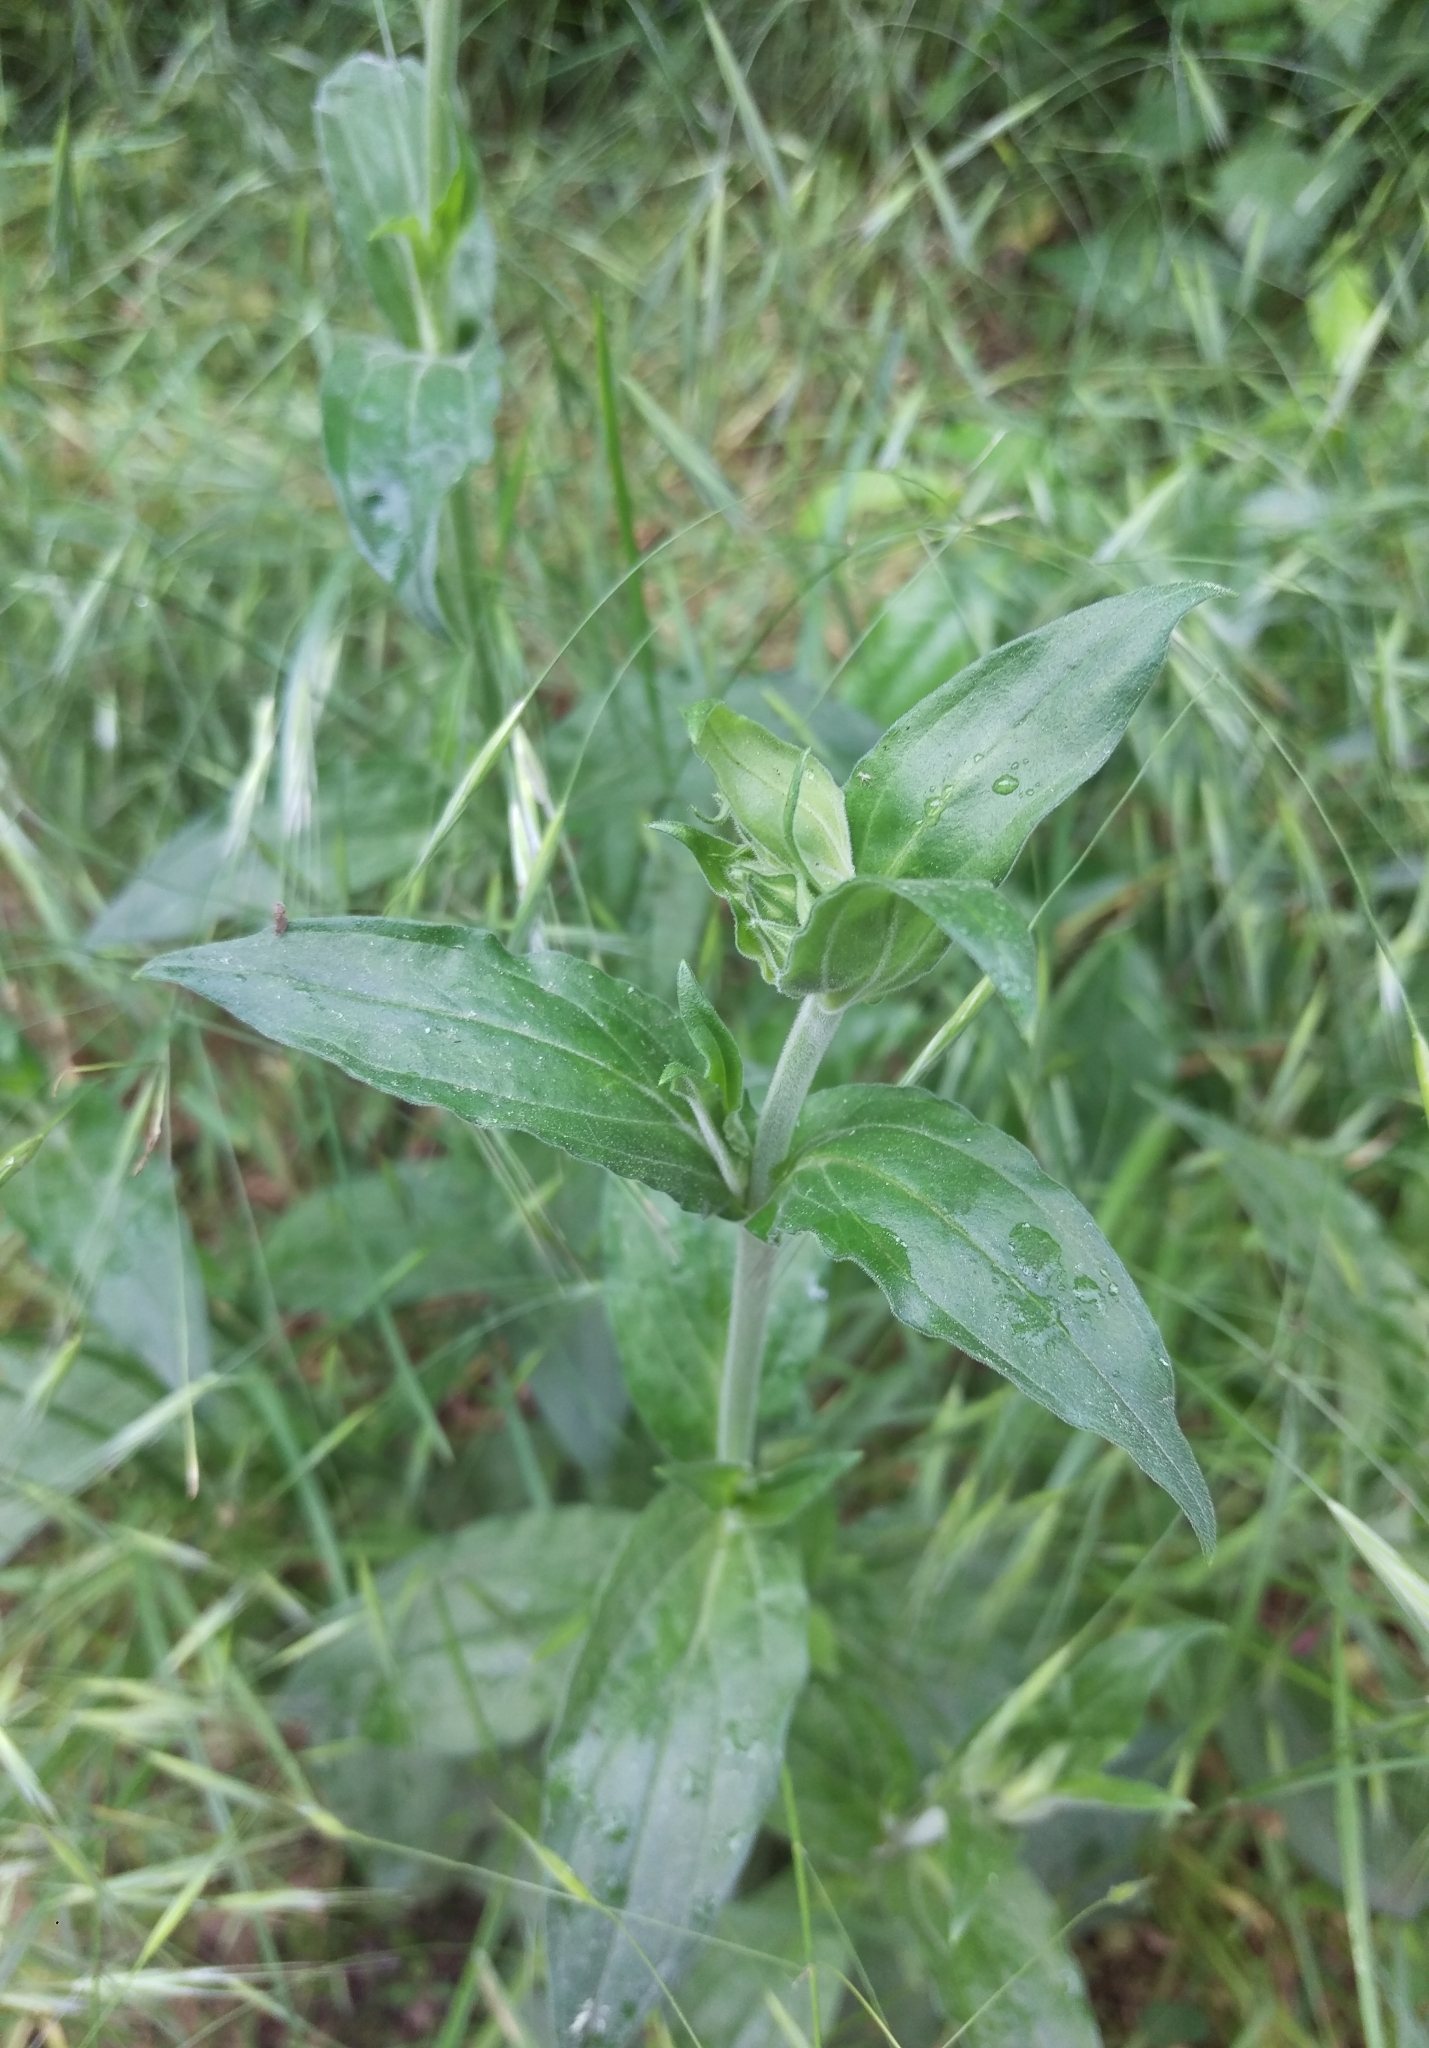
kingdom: Plantae
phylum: Tracheophyta
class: Magnoliopsida
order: Caryophyllales
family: Caryophyllaceae
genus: Silene
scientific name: Silene latifolia
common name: White campion
